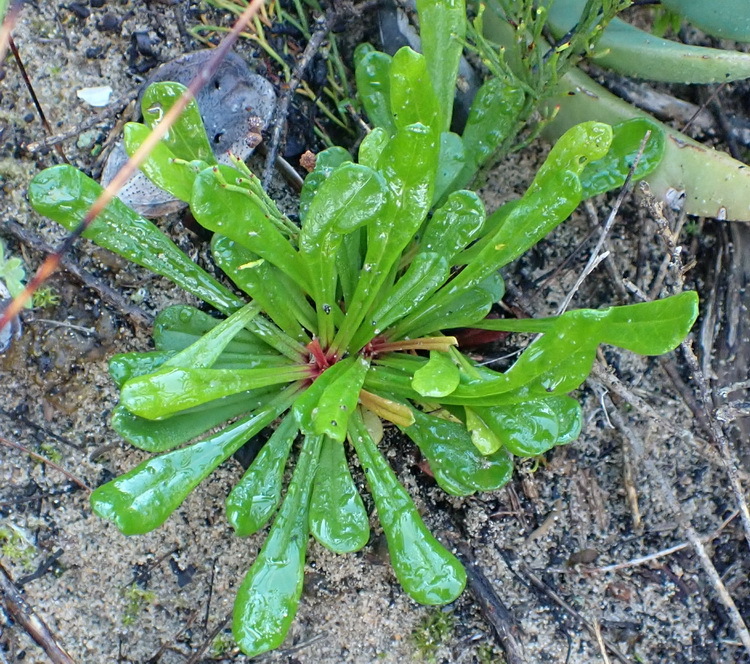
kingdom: Plantae
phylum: Tracheophyta
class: Magnoliopsida
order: Caryophyllales
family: Plumbaginaceae
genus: Limonium
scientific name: Limonium scabrum
